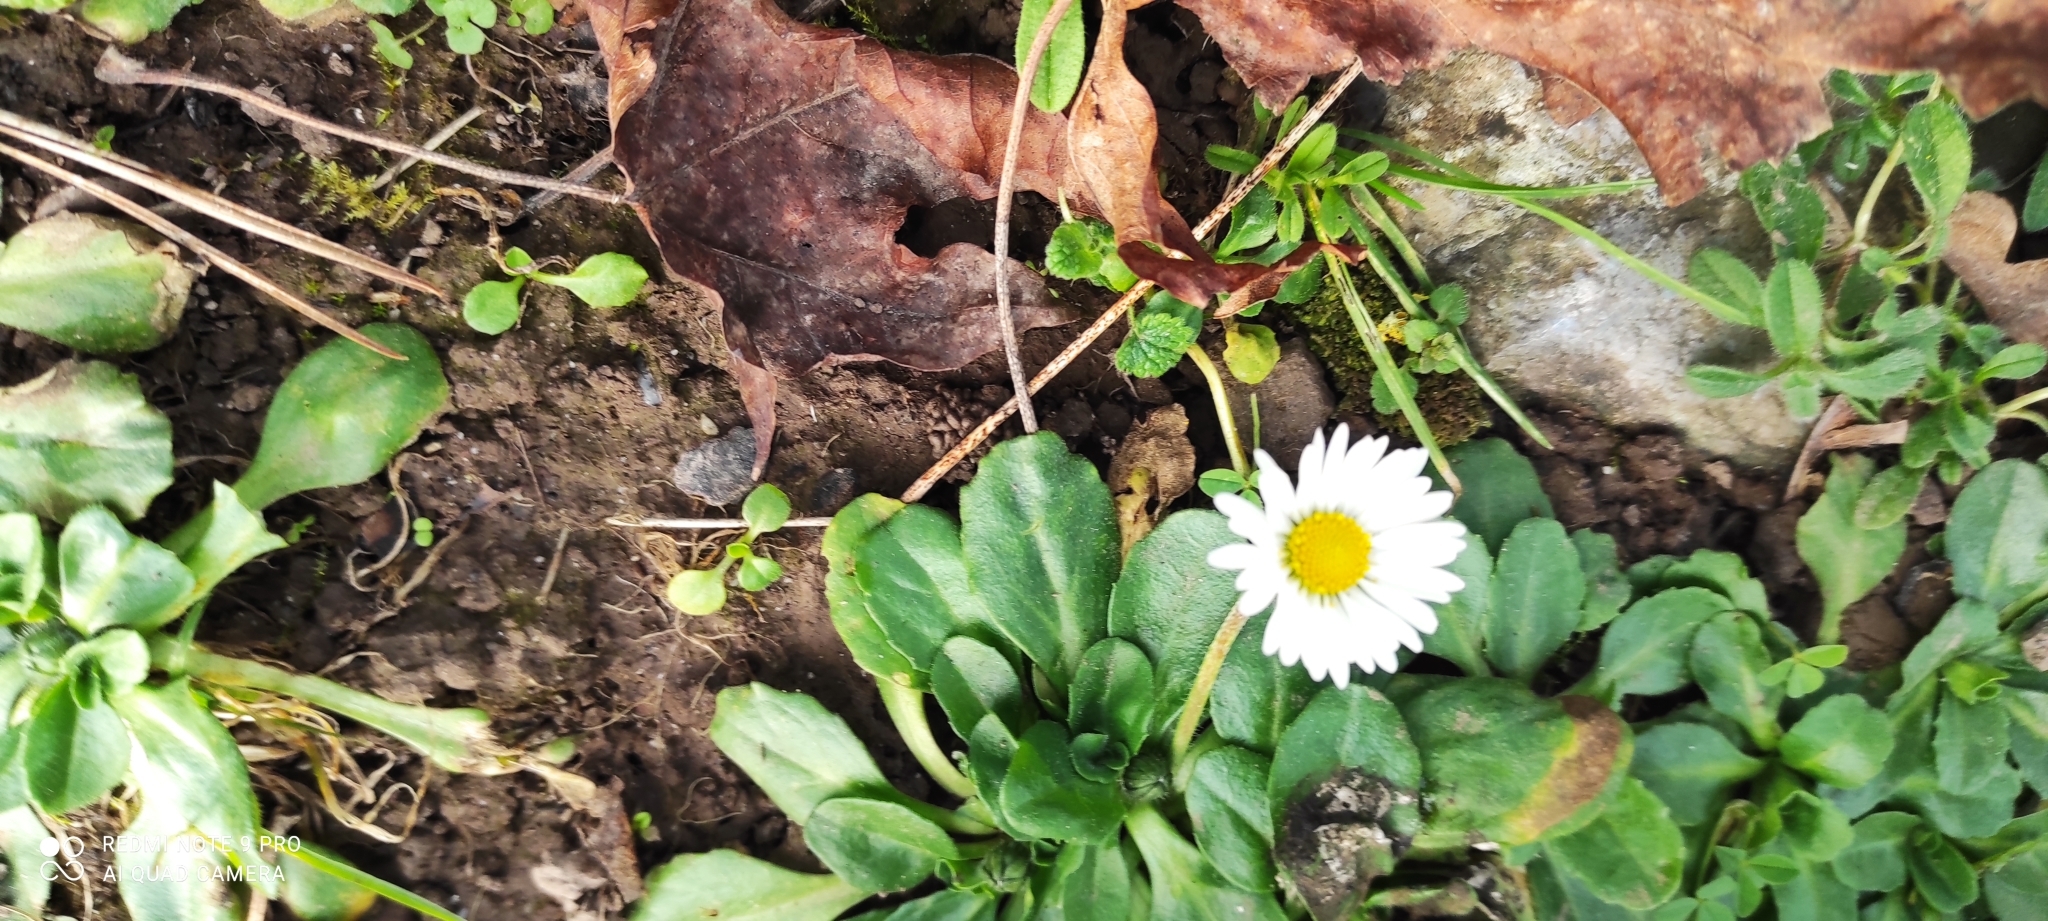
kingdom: Plantae
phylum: Tracheophyta
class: Magnoliopsida
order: Asterales
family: Asteraceae
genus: Bellis
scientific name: Bellis perennis
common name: Lawndaisy
